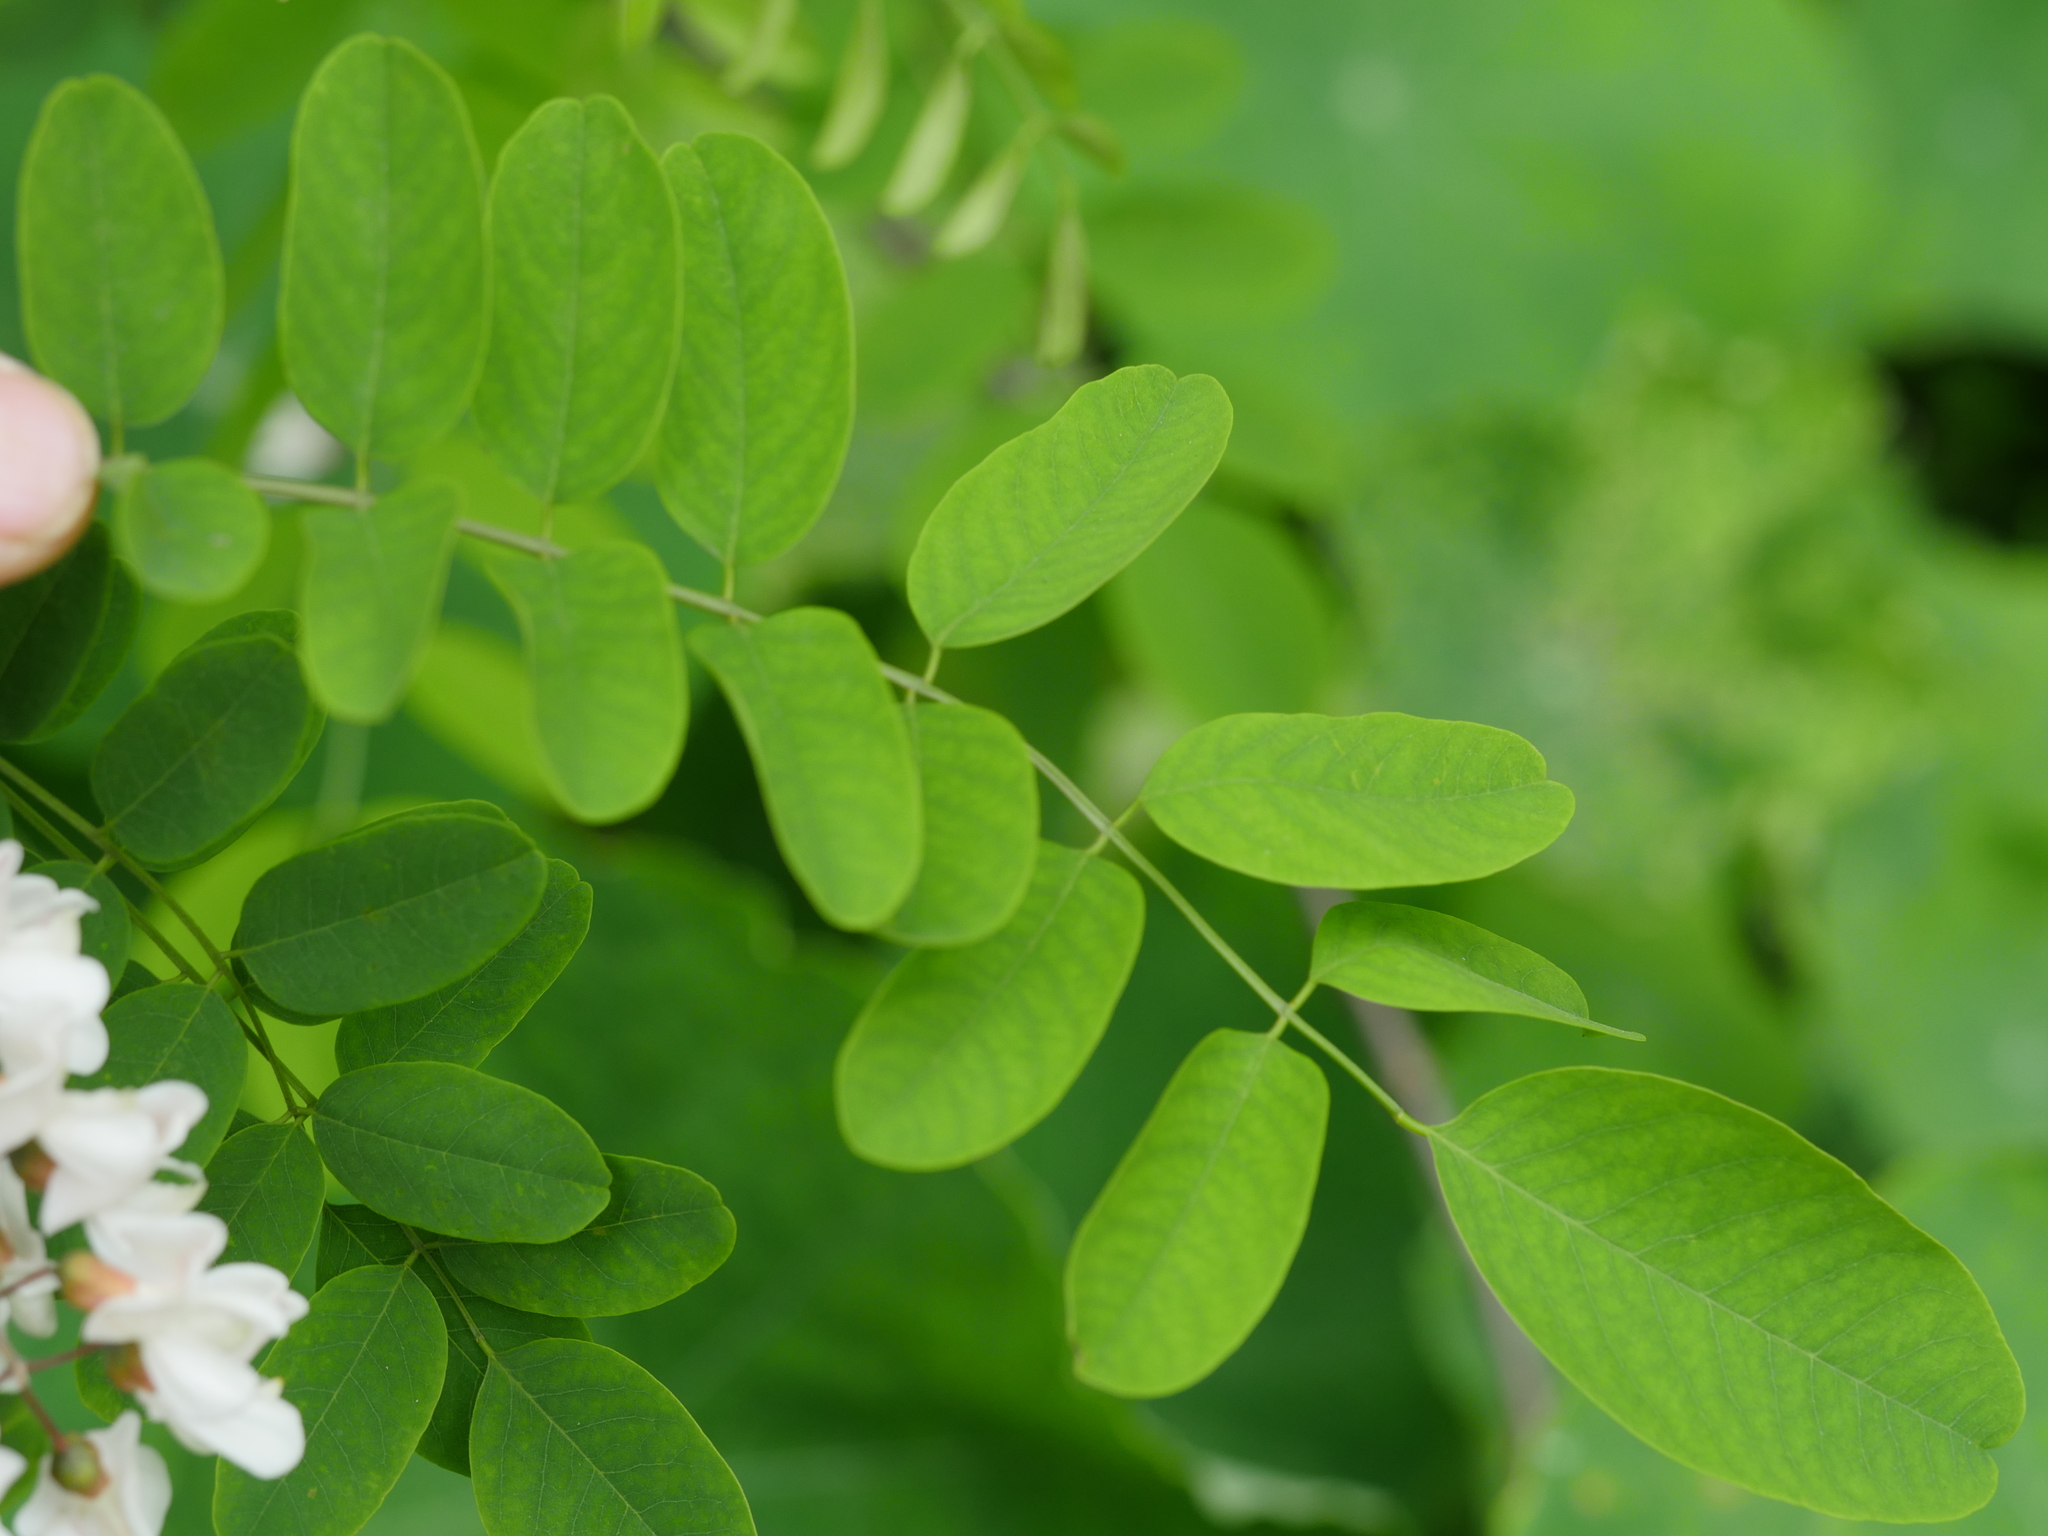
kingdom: Plantae
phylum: Tracheophyta
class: Magnoliopsida
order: Fabales
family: Fabaceae
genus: Robinia
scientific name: Robinia pseudoacacia
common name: Black locust
